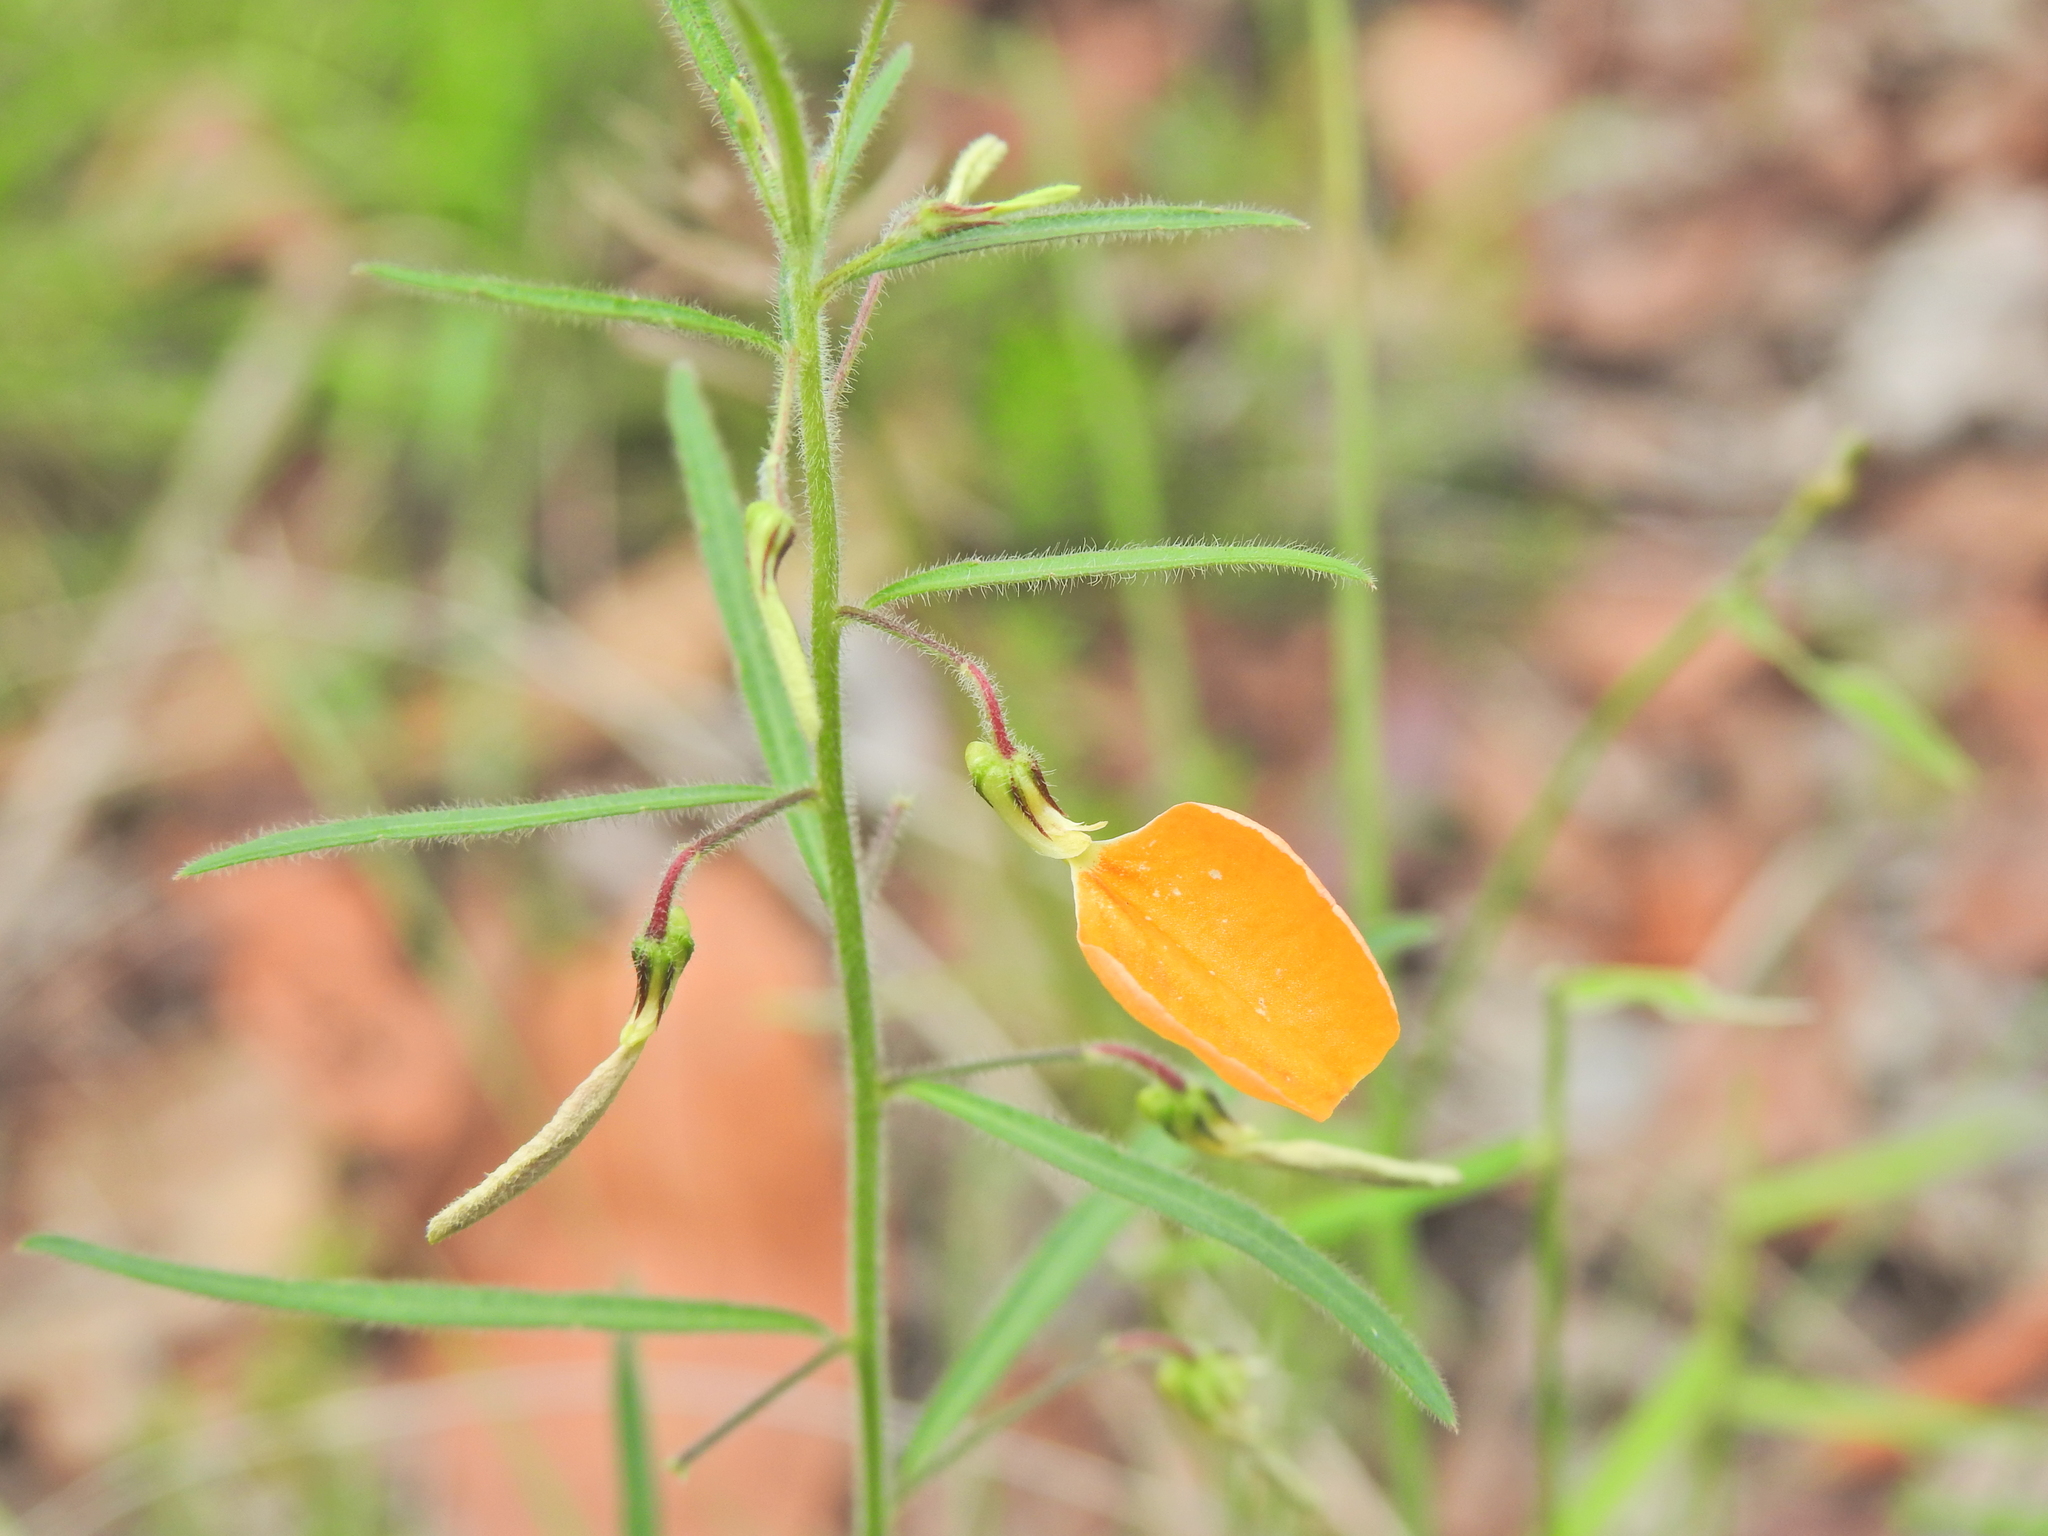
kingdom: Plantae
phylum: Tracheophyta
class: Magnoliopsida
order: Malpighiales
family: Violaceae
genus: Pigea
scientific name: Pigea stellarioides
